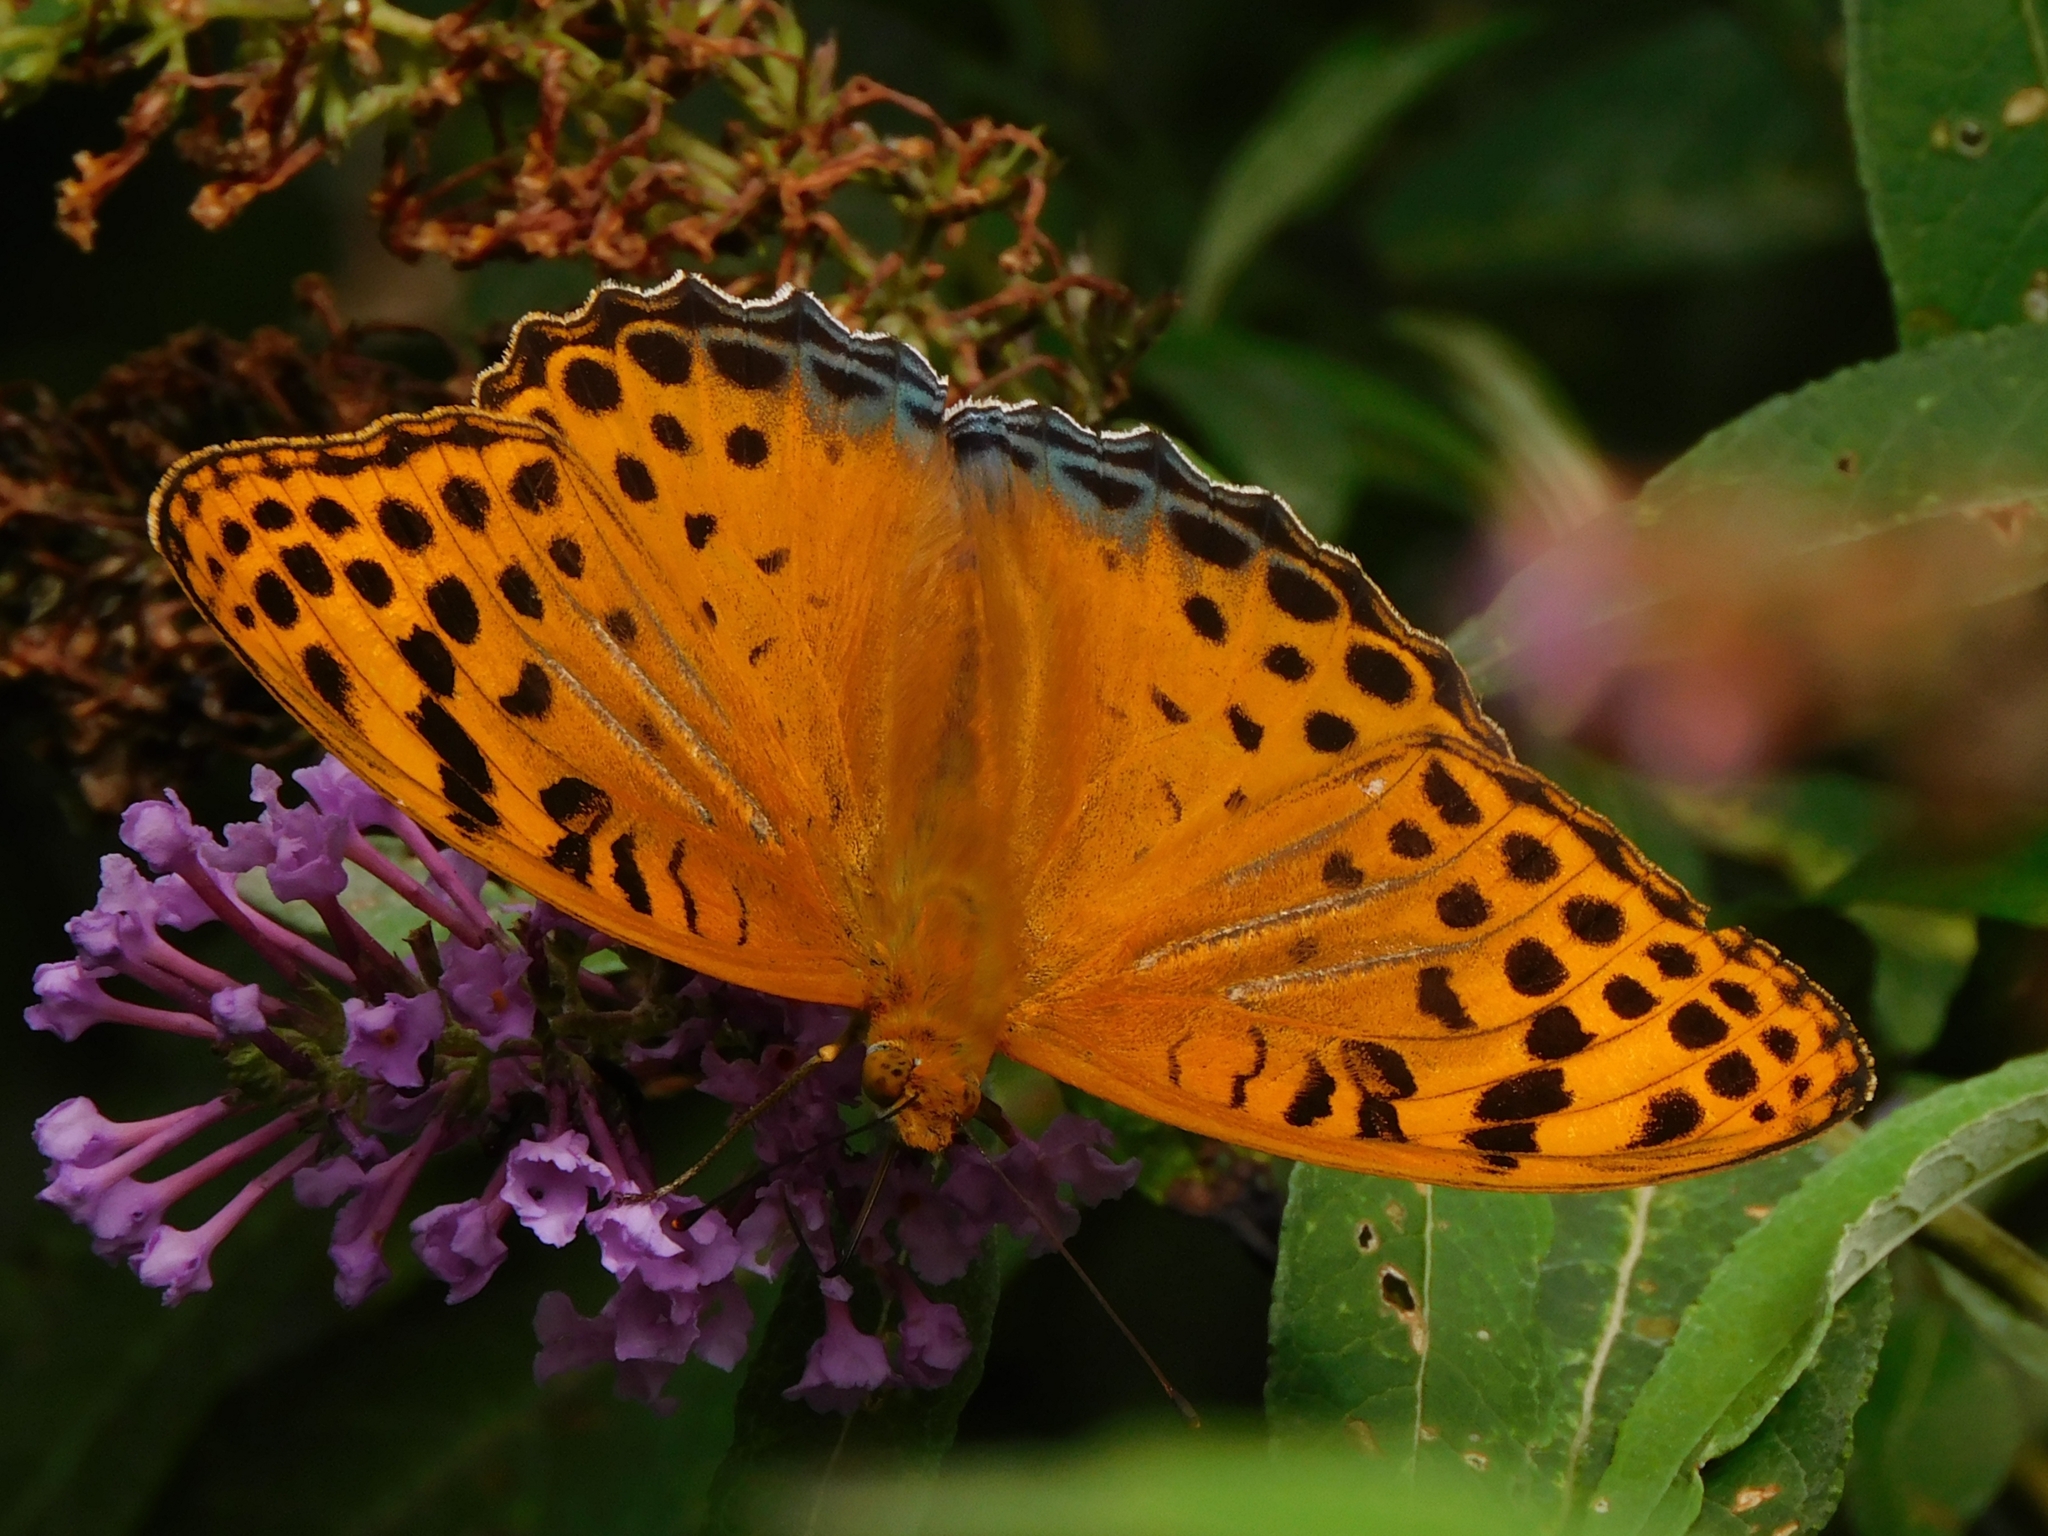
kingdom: Animalia
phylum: Arthropoda
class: Insecta
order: Lepidoptera
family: Nymphalidae
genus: Childrena
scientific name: Childrena childreni
